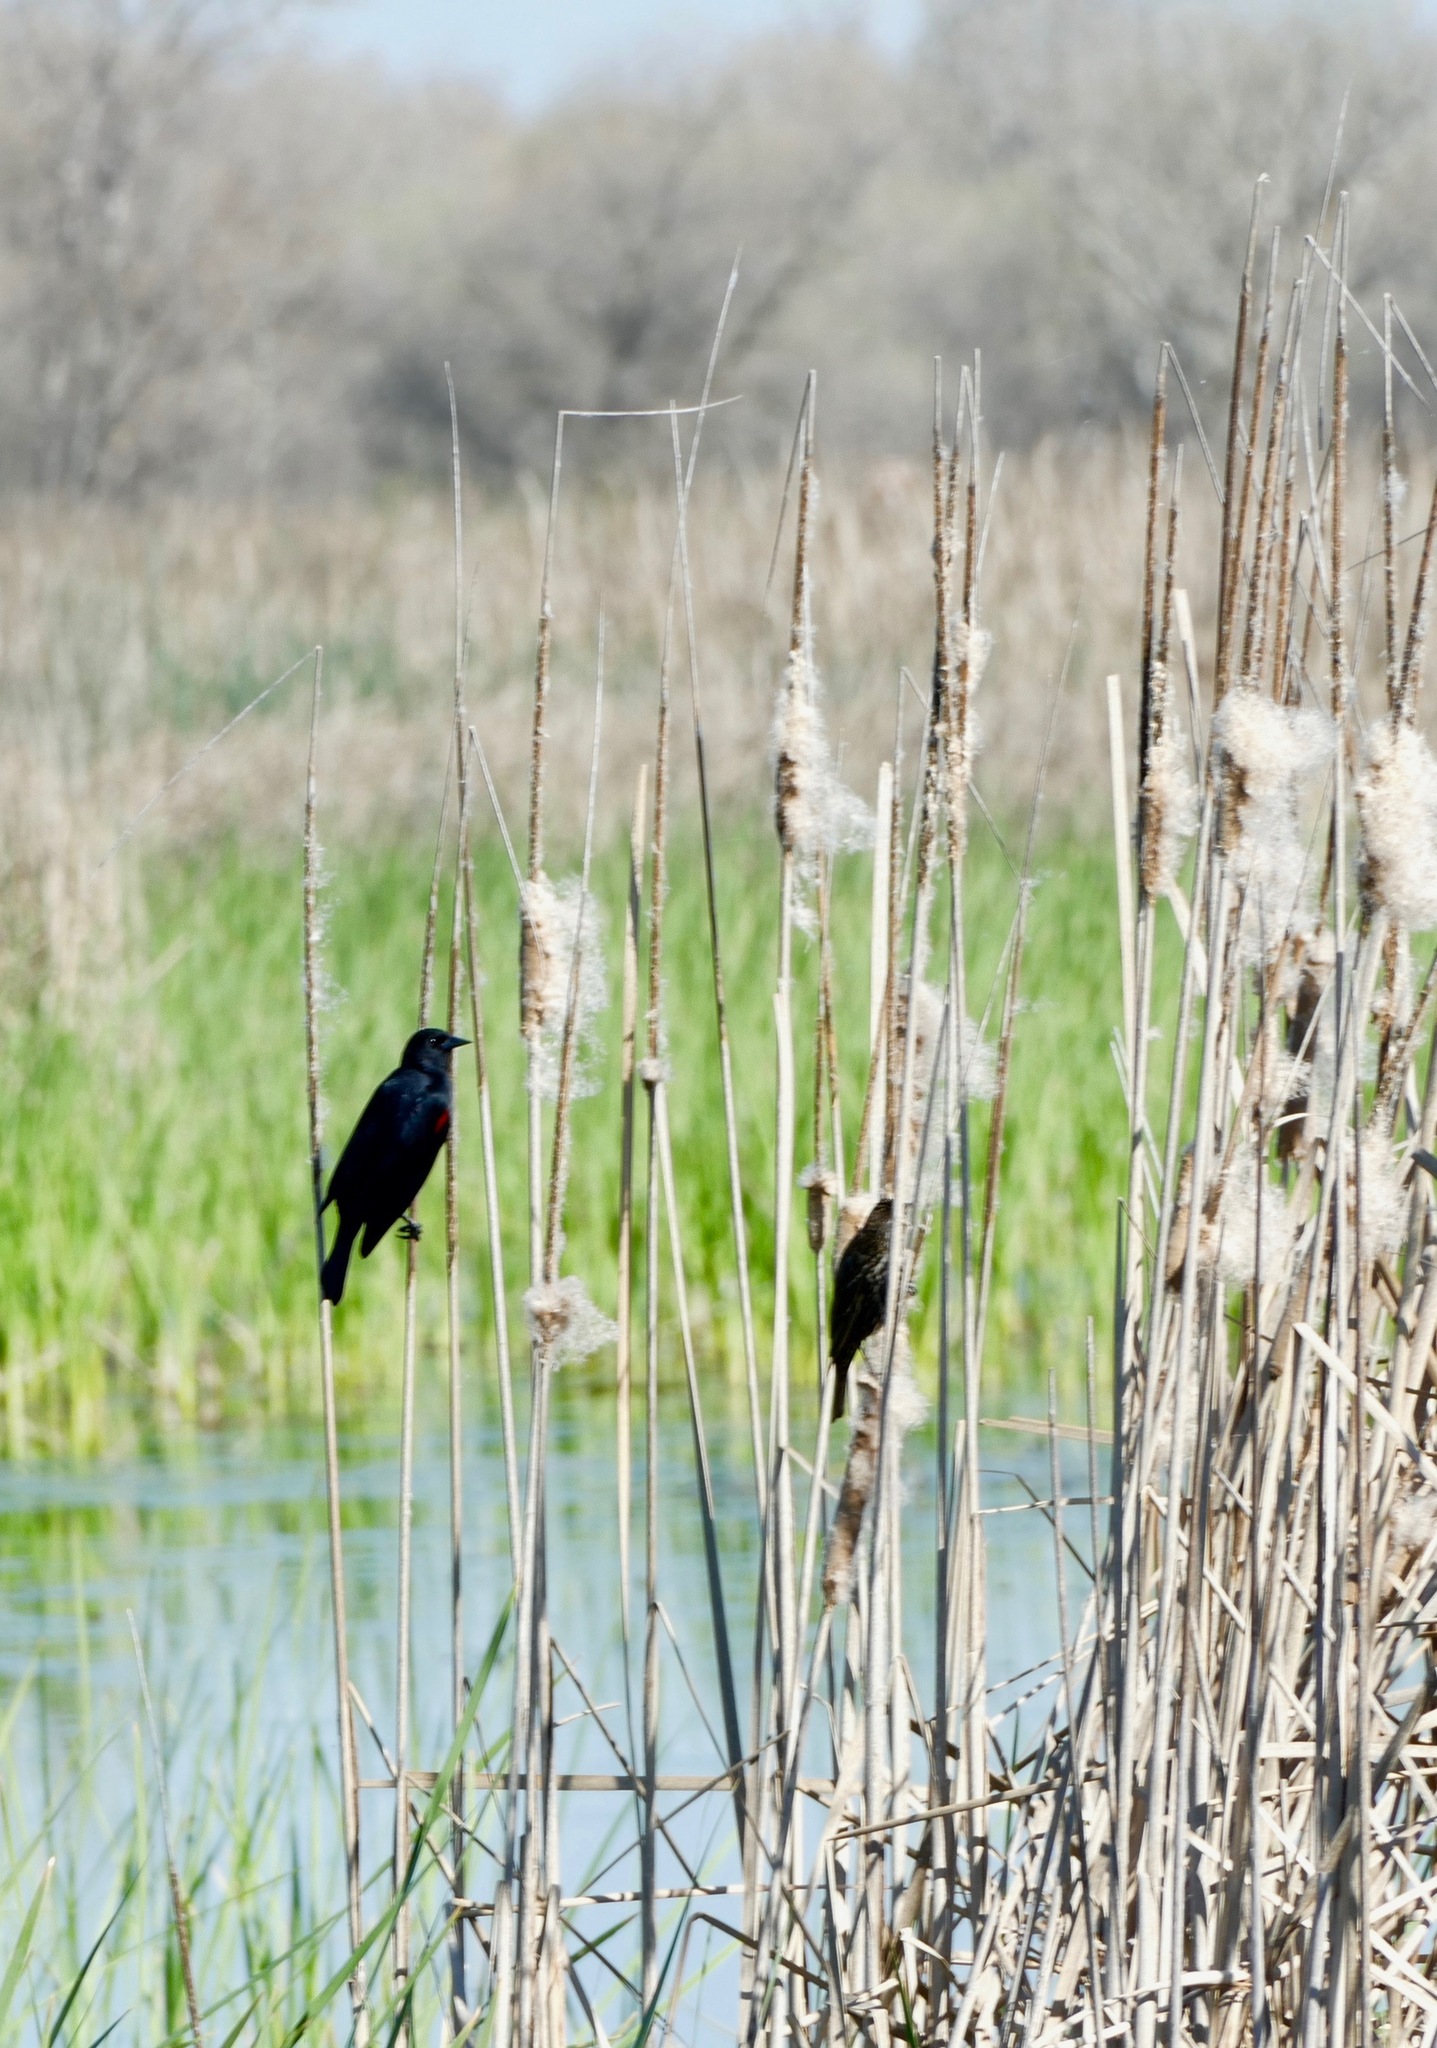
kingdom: Animalia
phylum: Chordata
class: Aves
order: Passeriformes
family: Icteridae
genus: Agelaius
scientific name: Agelaius phoeniceus
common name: Red-winged blackbird
